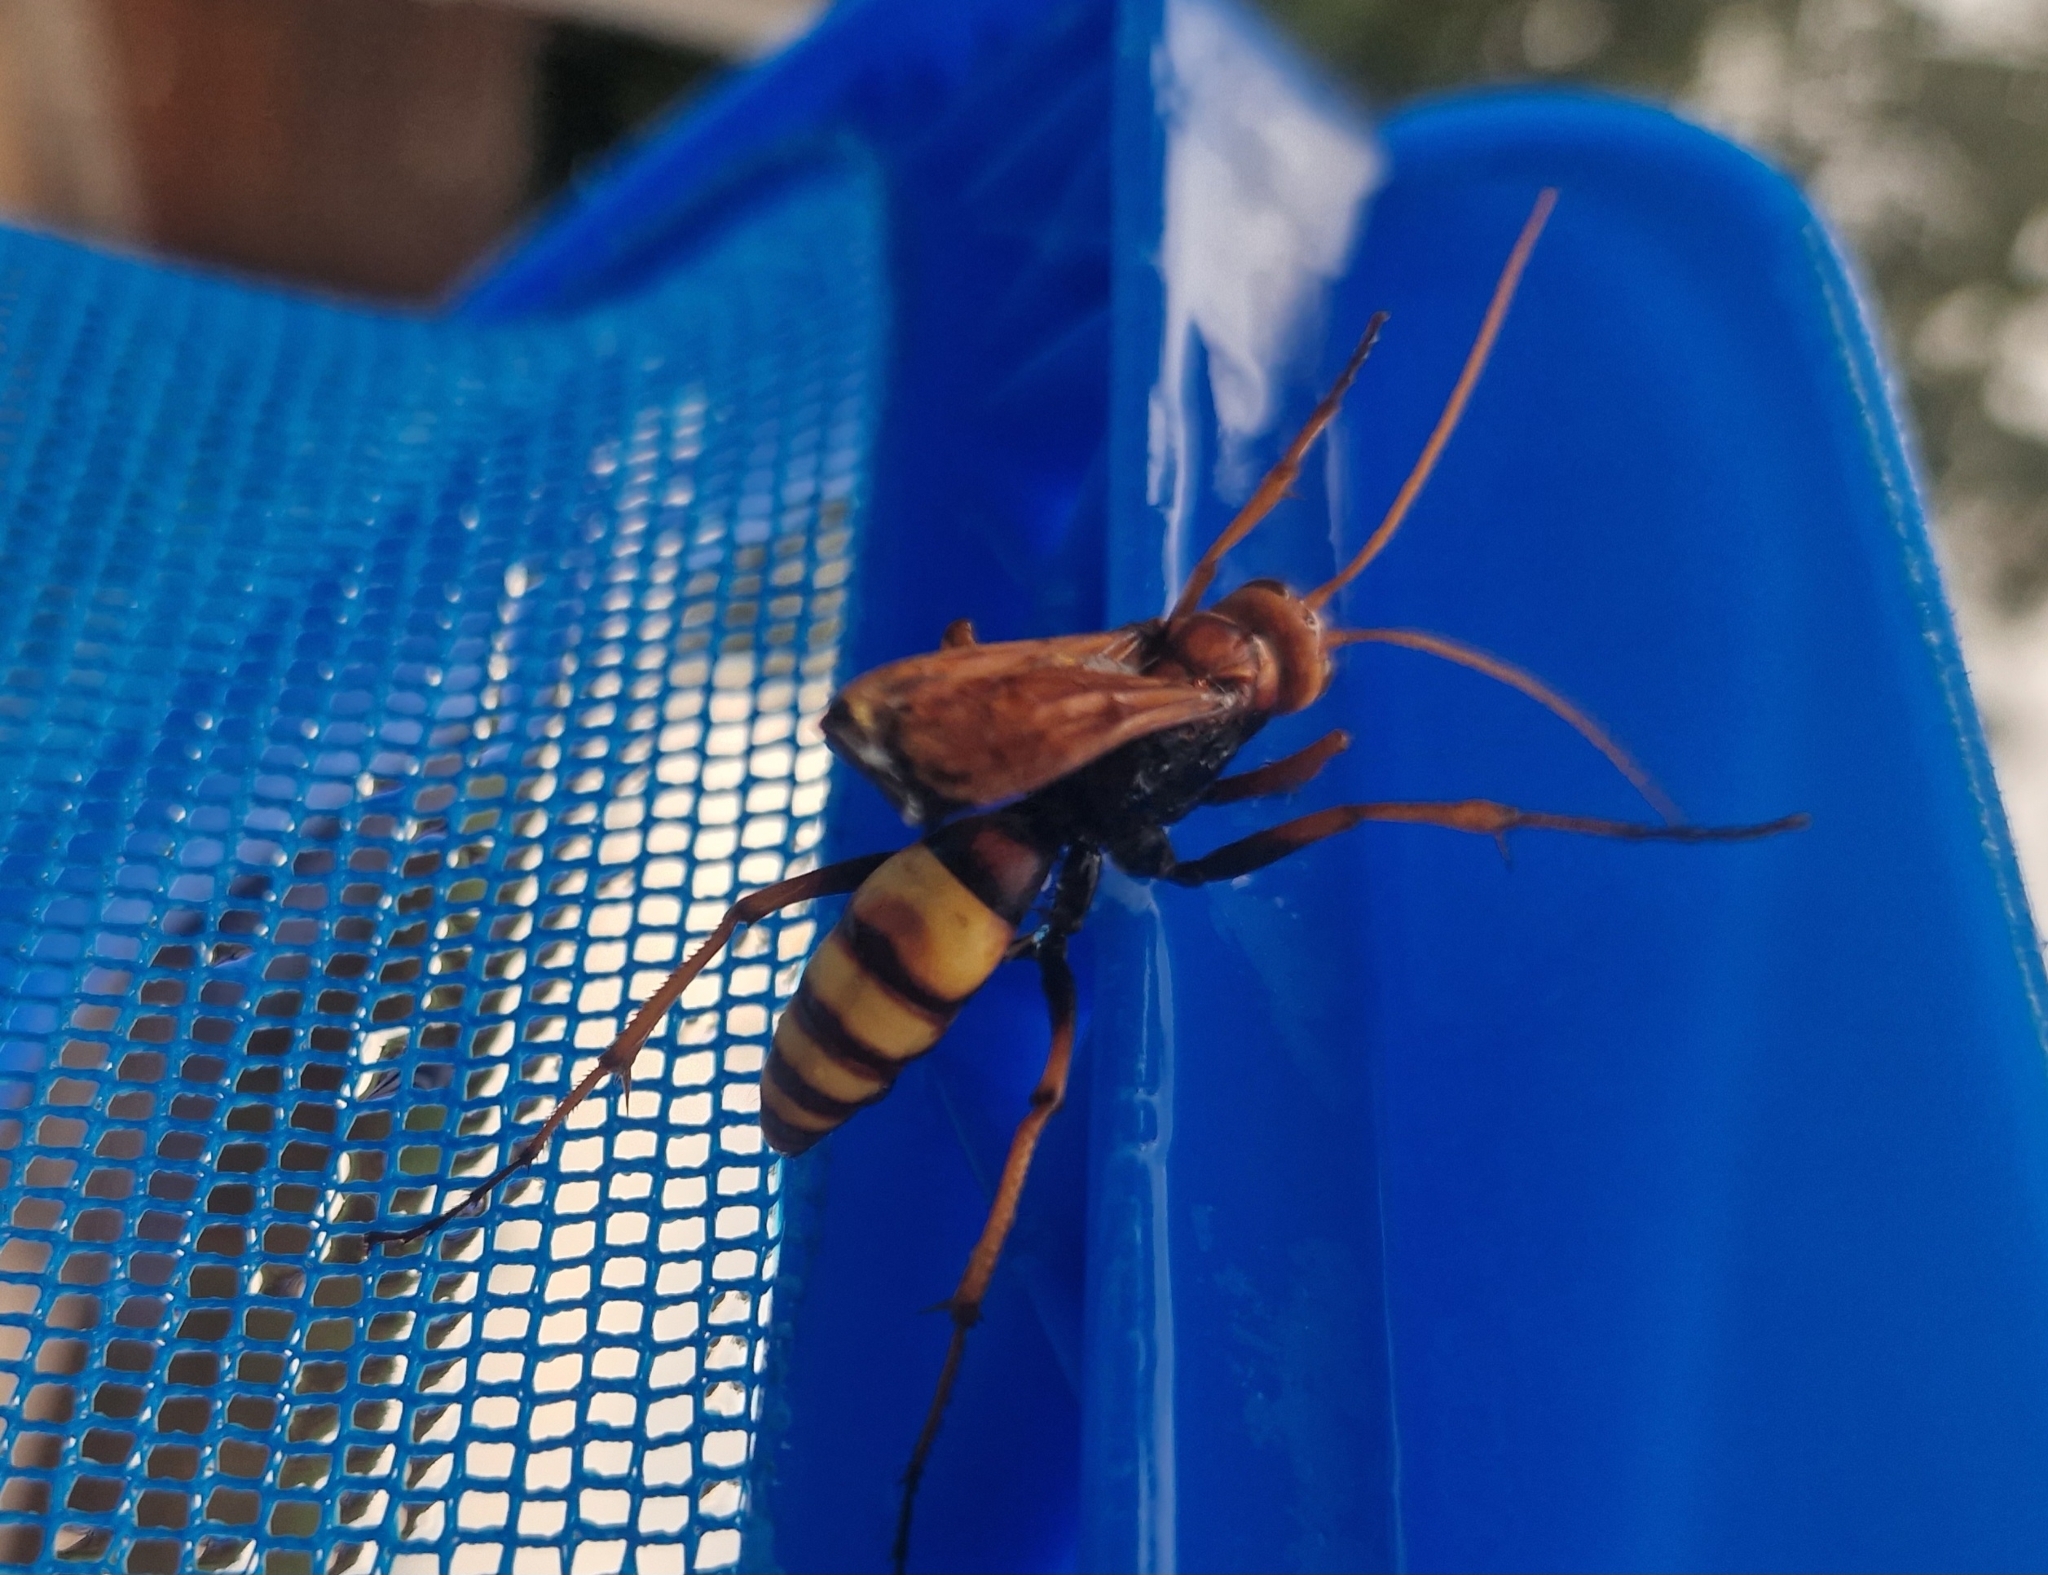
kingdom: Animalia
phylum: Arthropoda
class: Insecta
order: Hymenoptera
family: Pompilidae
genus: Cryptocheilus
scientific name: Cryptocheilus alternatus
